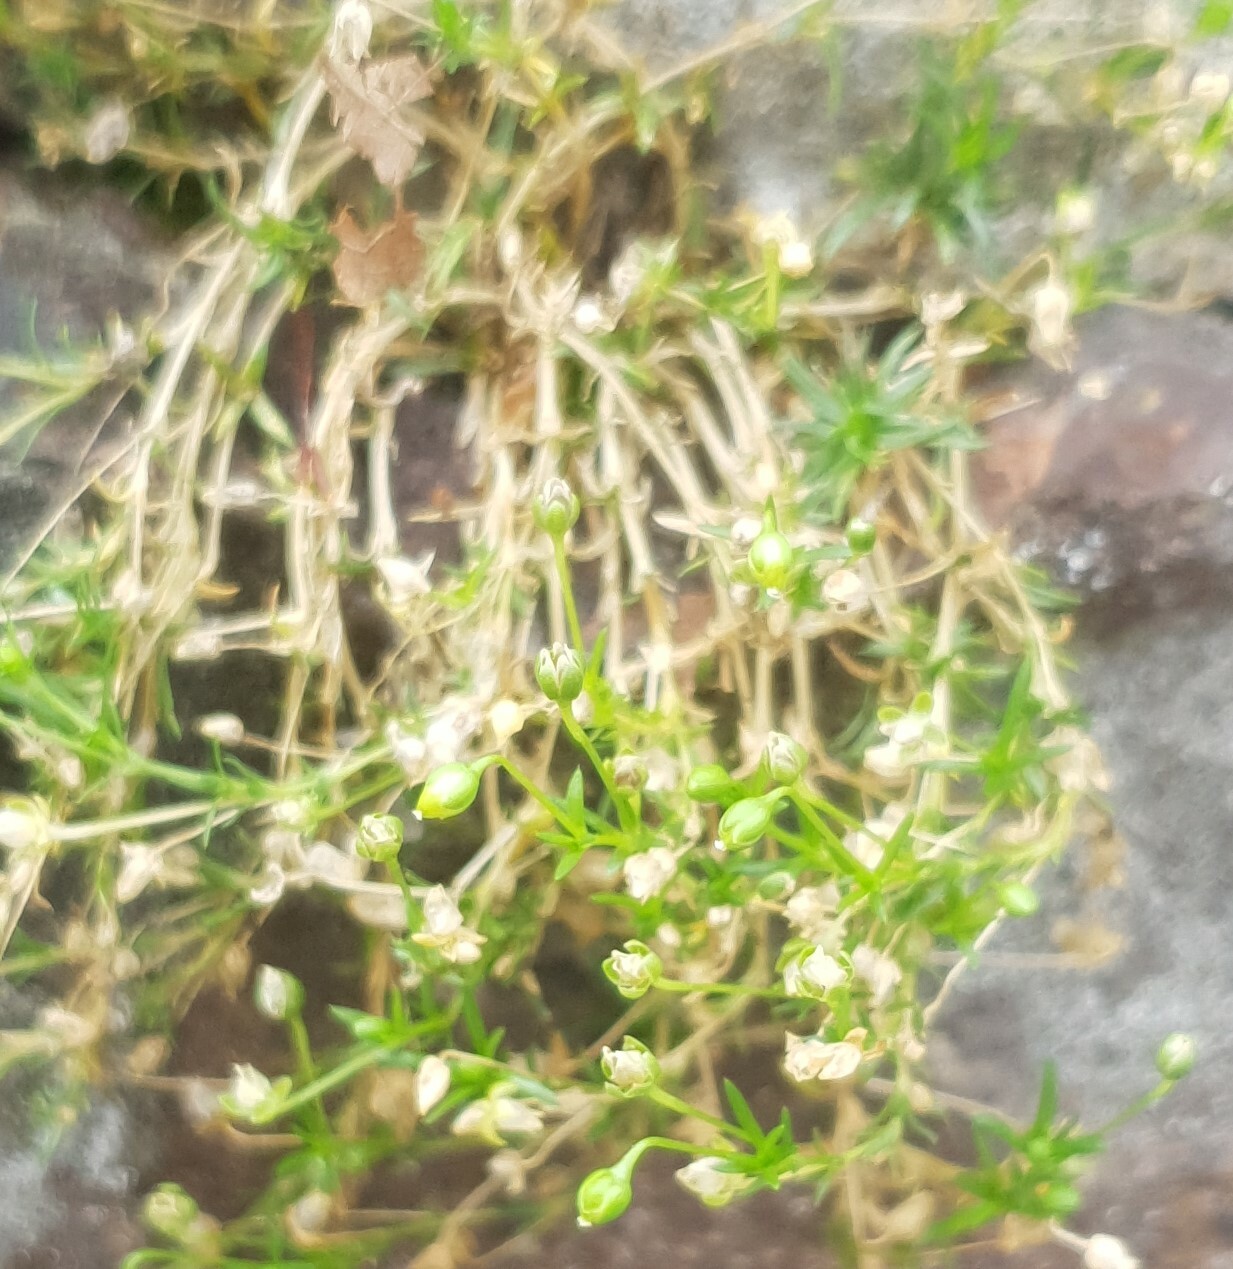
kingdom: Plantae
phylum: Tracheophyta
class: Magnoliopsida
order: Caryophyllales
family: Caryophyllaceae
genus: Sagina
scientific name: Sagina procumbens
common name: Procumbent pearlwort
